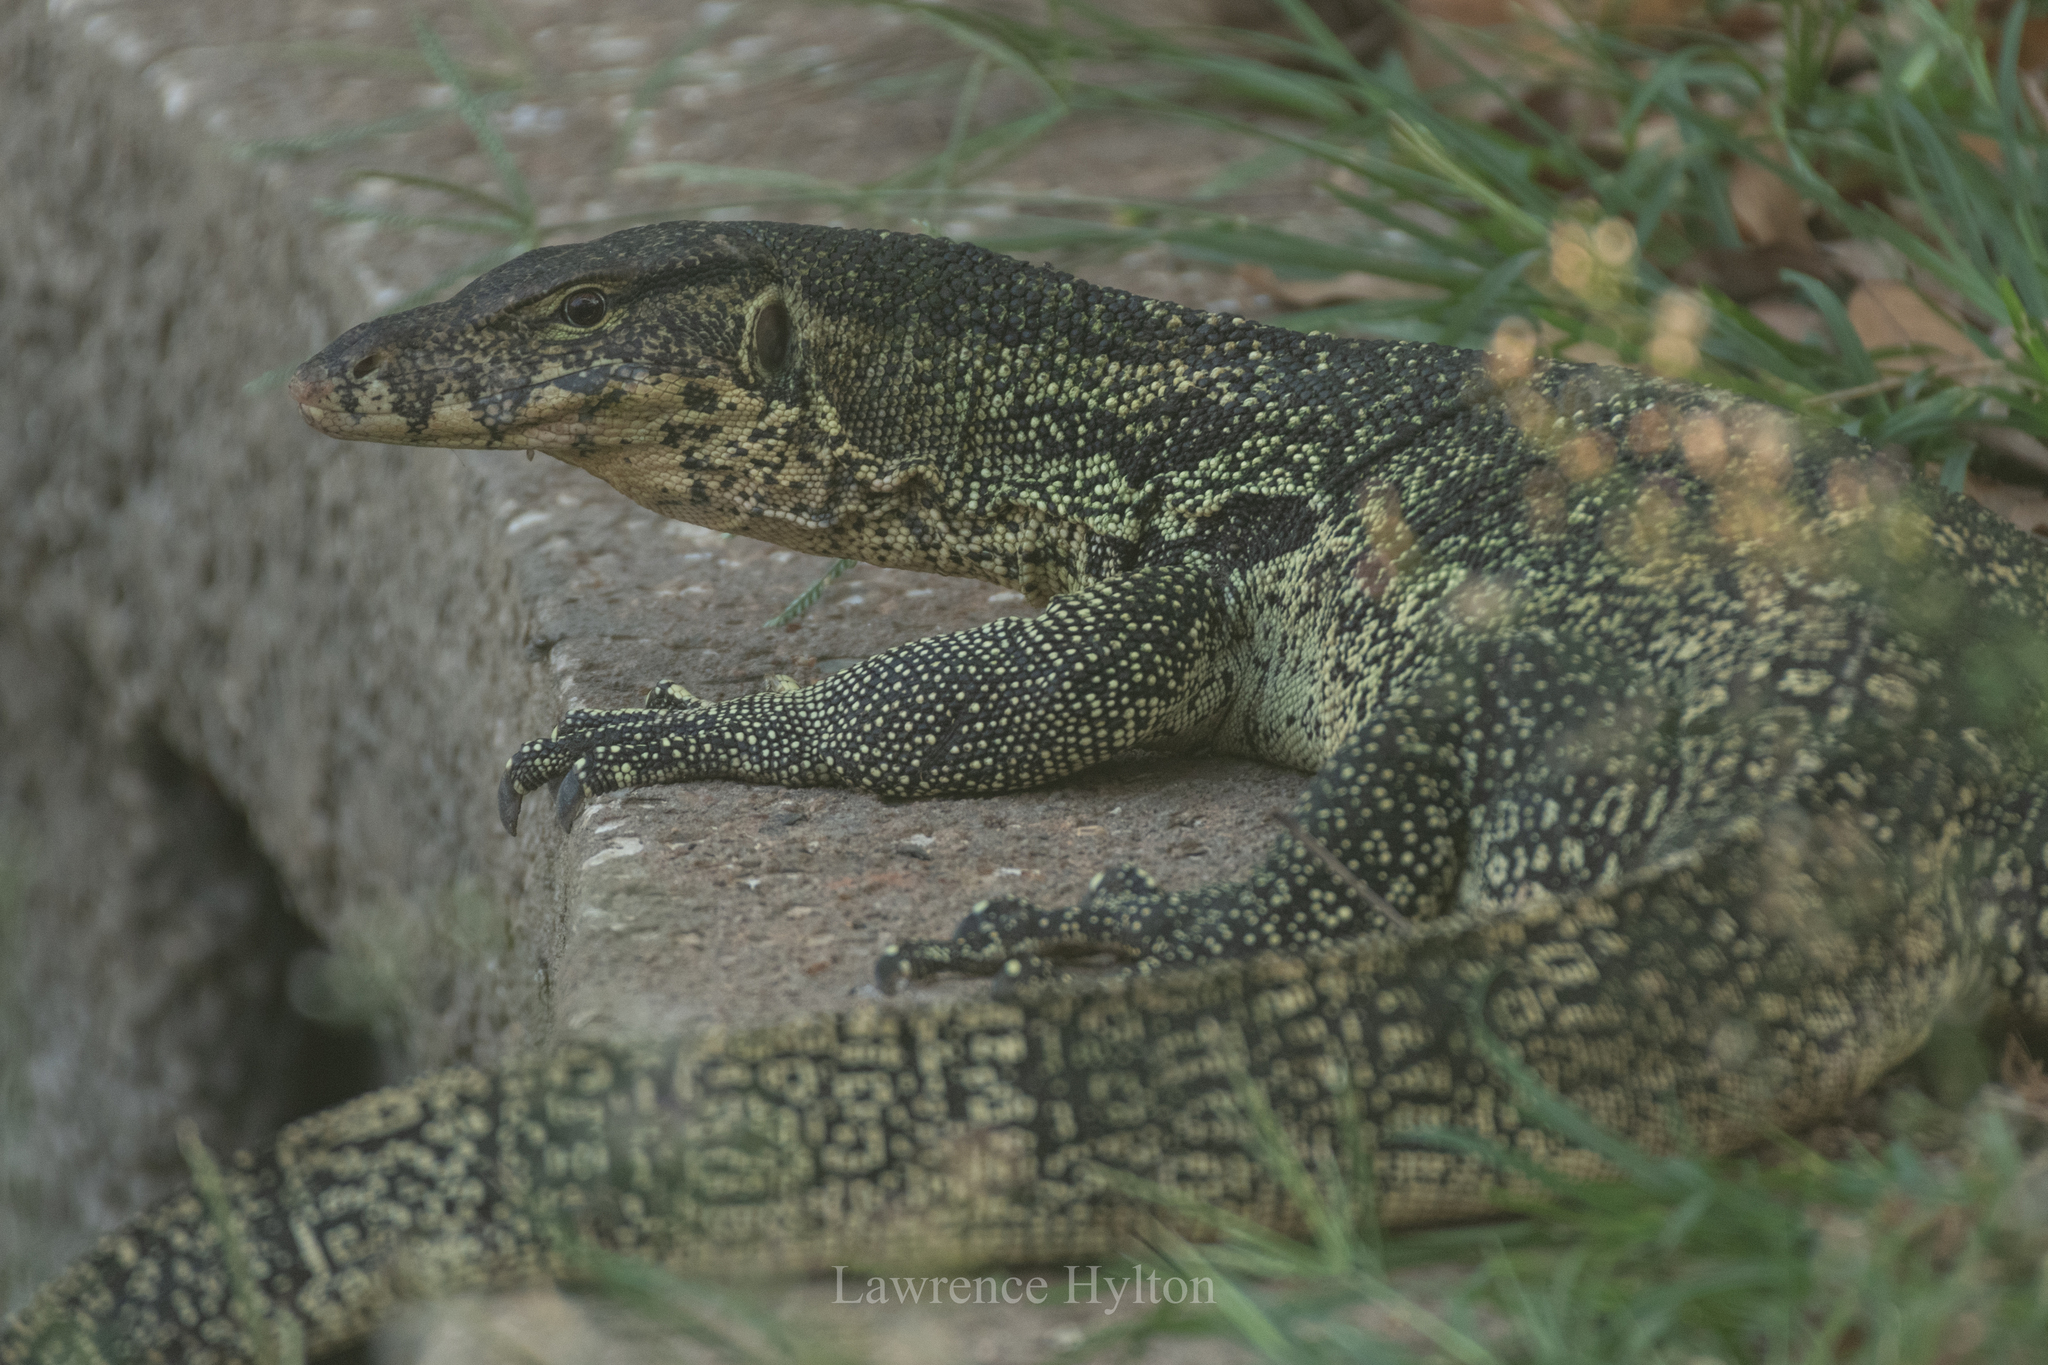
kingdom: Animalia
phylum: Chordata
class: Squamata
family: Varanidae
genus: Varanus
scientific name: Varanus salvator
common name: Common water monitor
